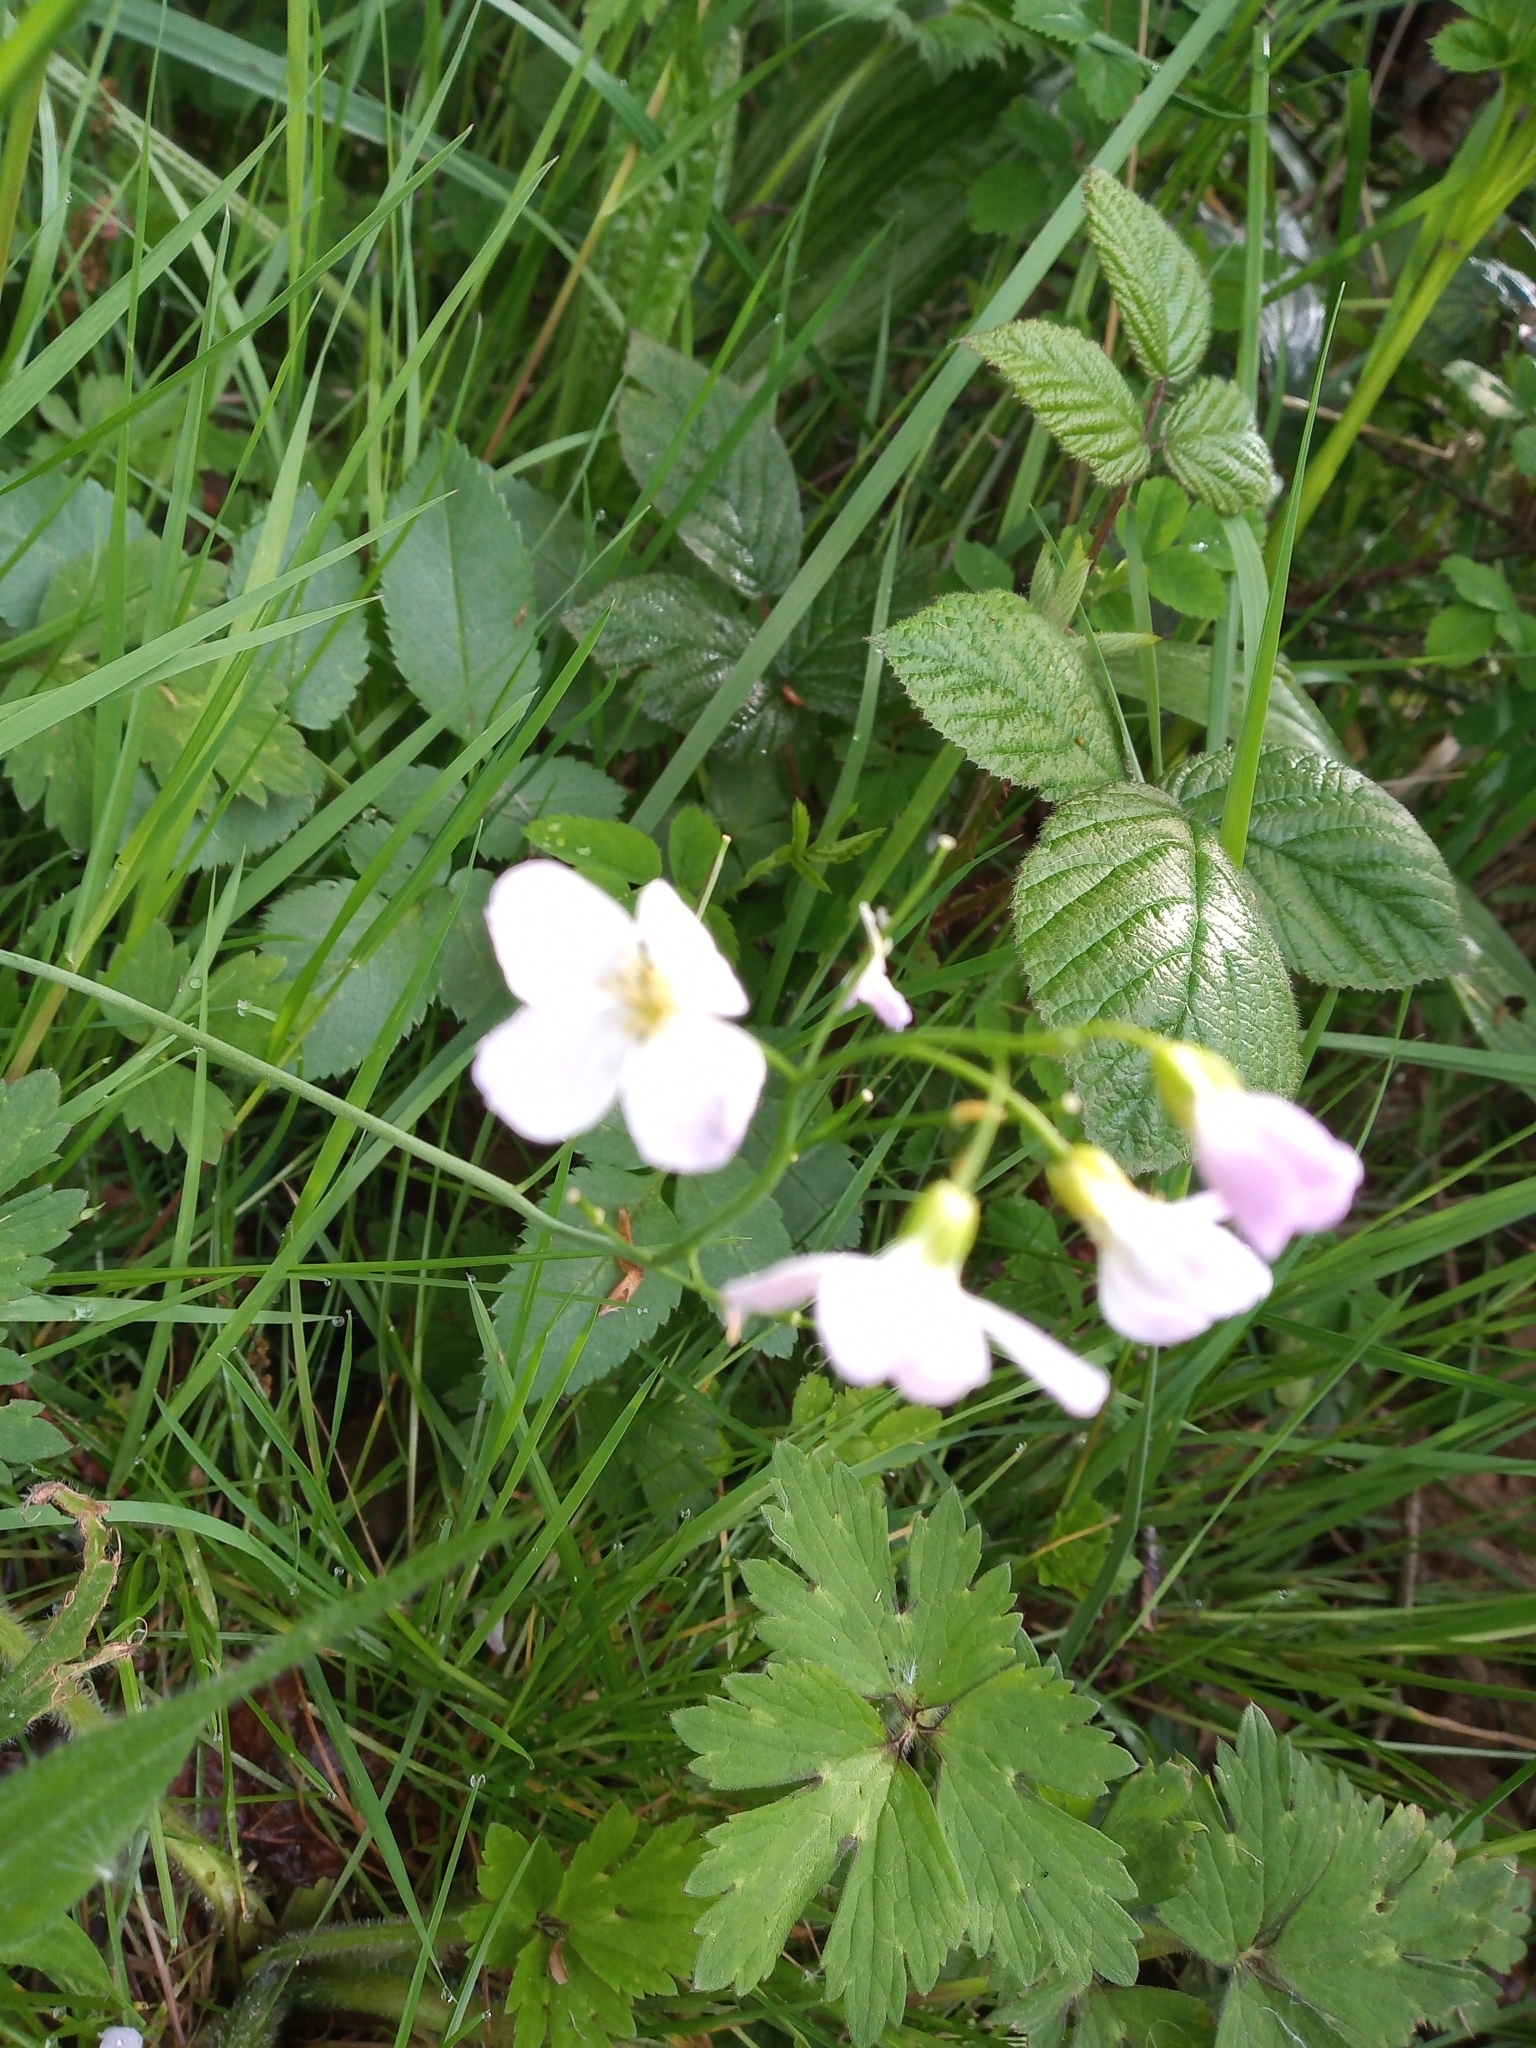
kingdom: Plantae
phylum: Tracheophyta
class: Magnoliopsida
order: Brassicales
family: Brassicaceae
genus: Cardamine
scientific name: Cardamine pratensis
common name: Cuckoo flower
